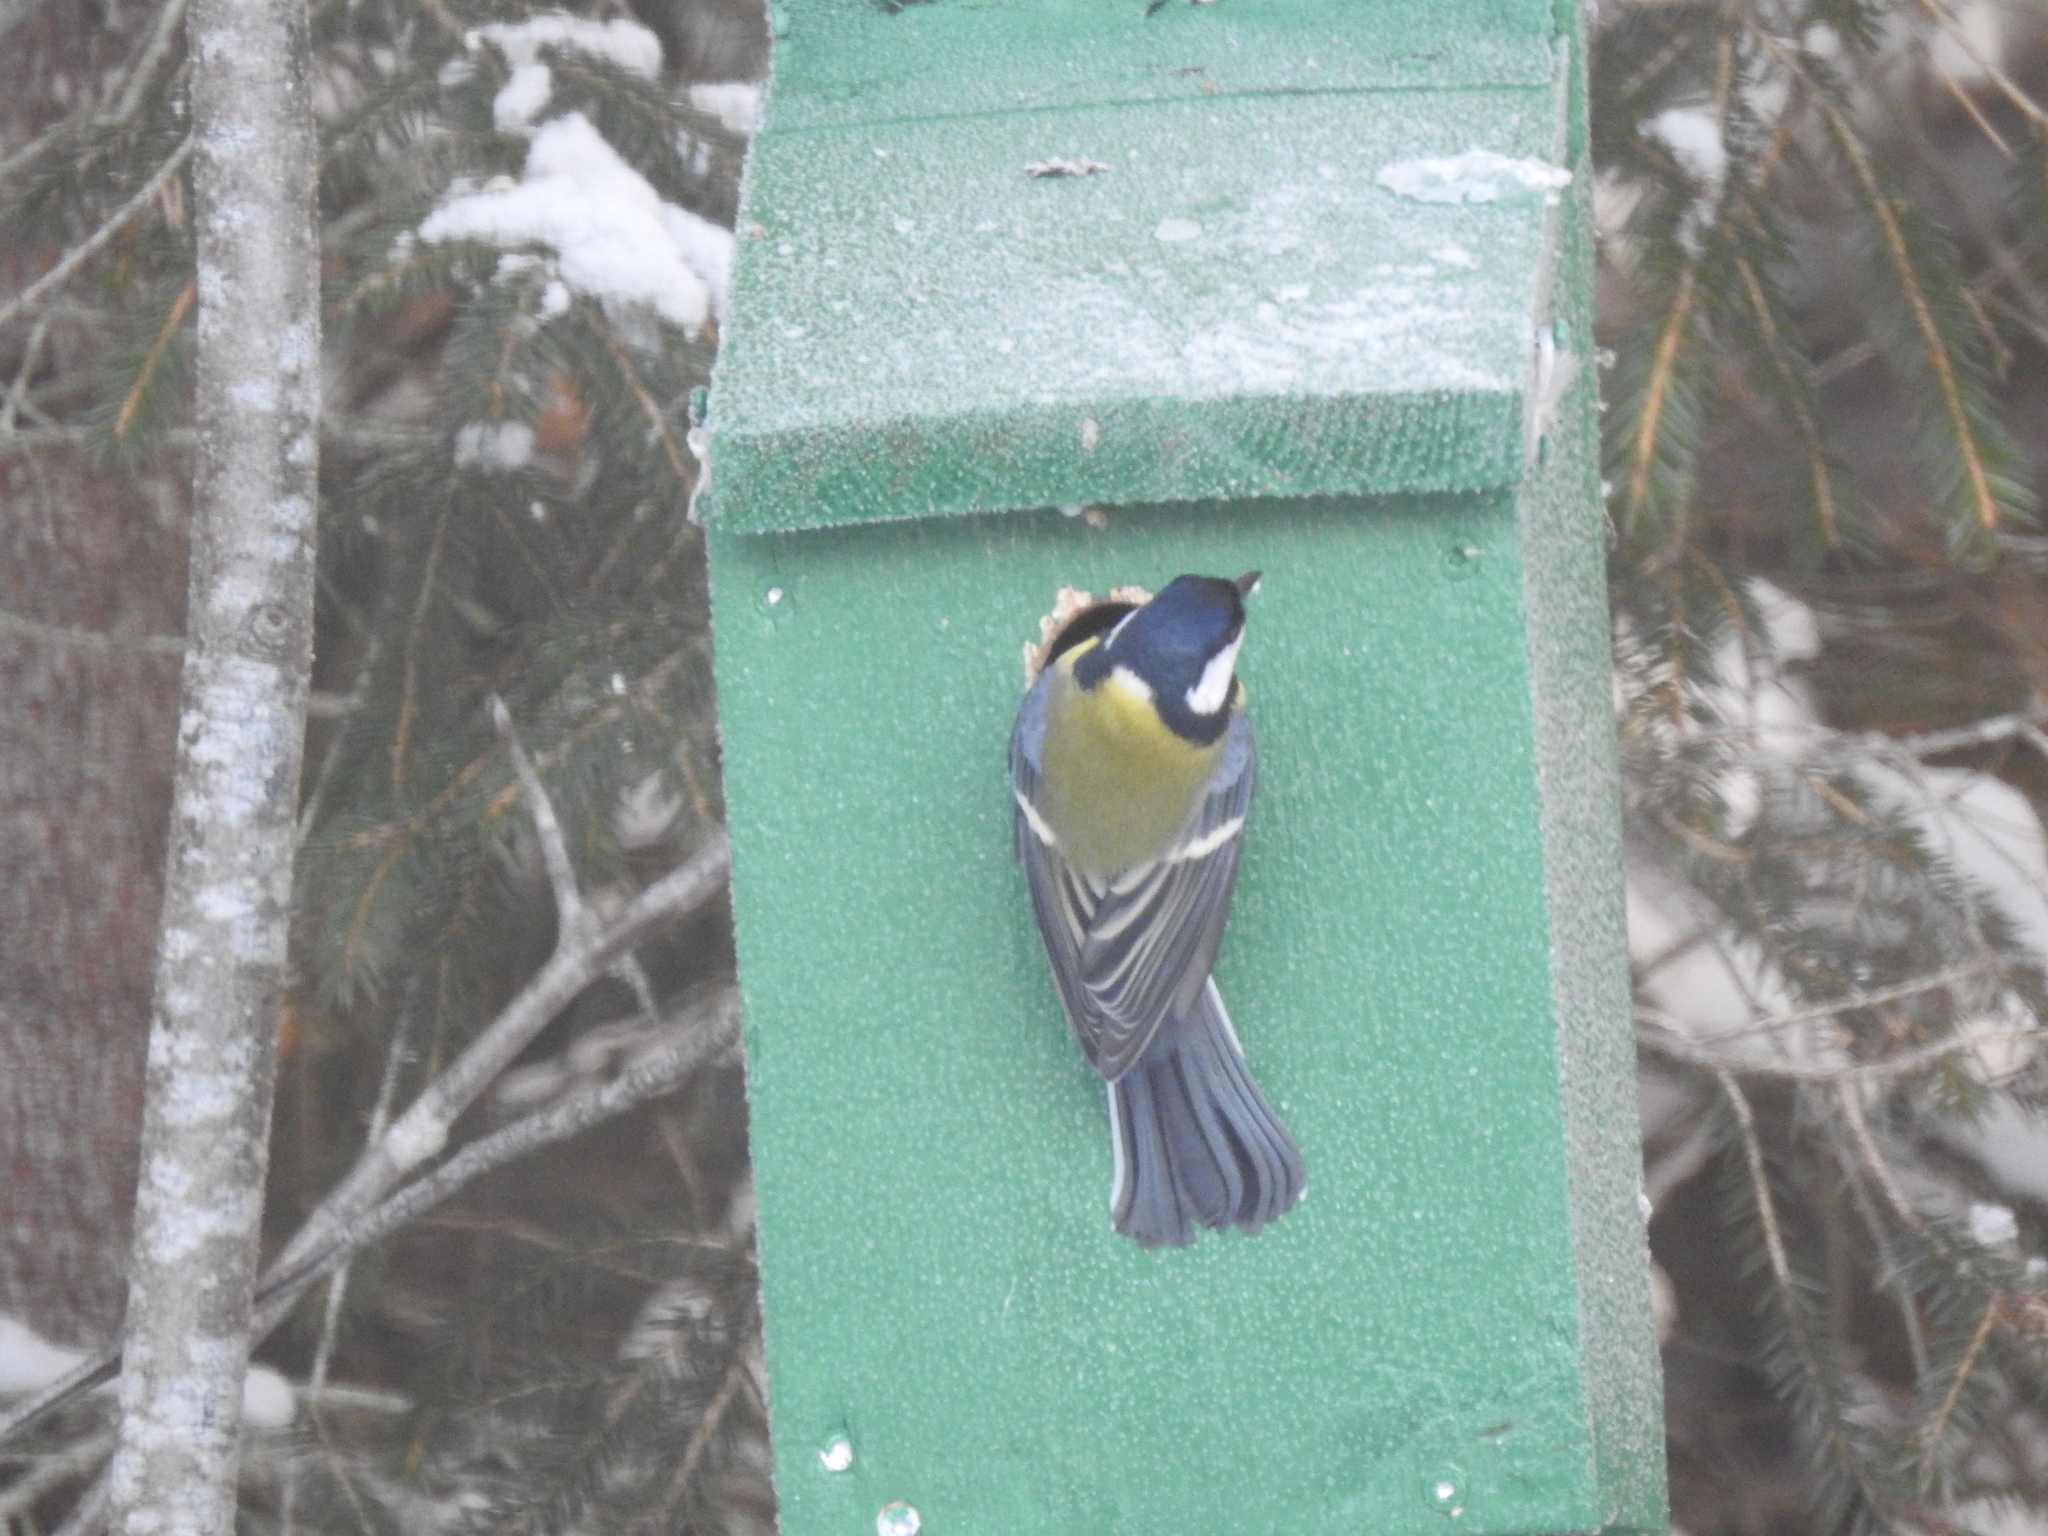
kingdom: Animalia
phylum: Chordata
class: Aves
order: Passeriformes
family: Paridae
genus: Parus
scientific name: Parus major
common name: Great tit
